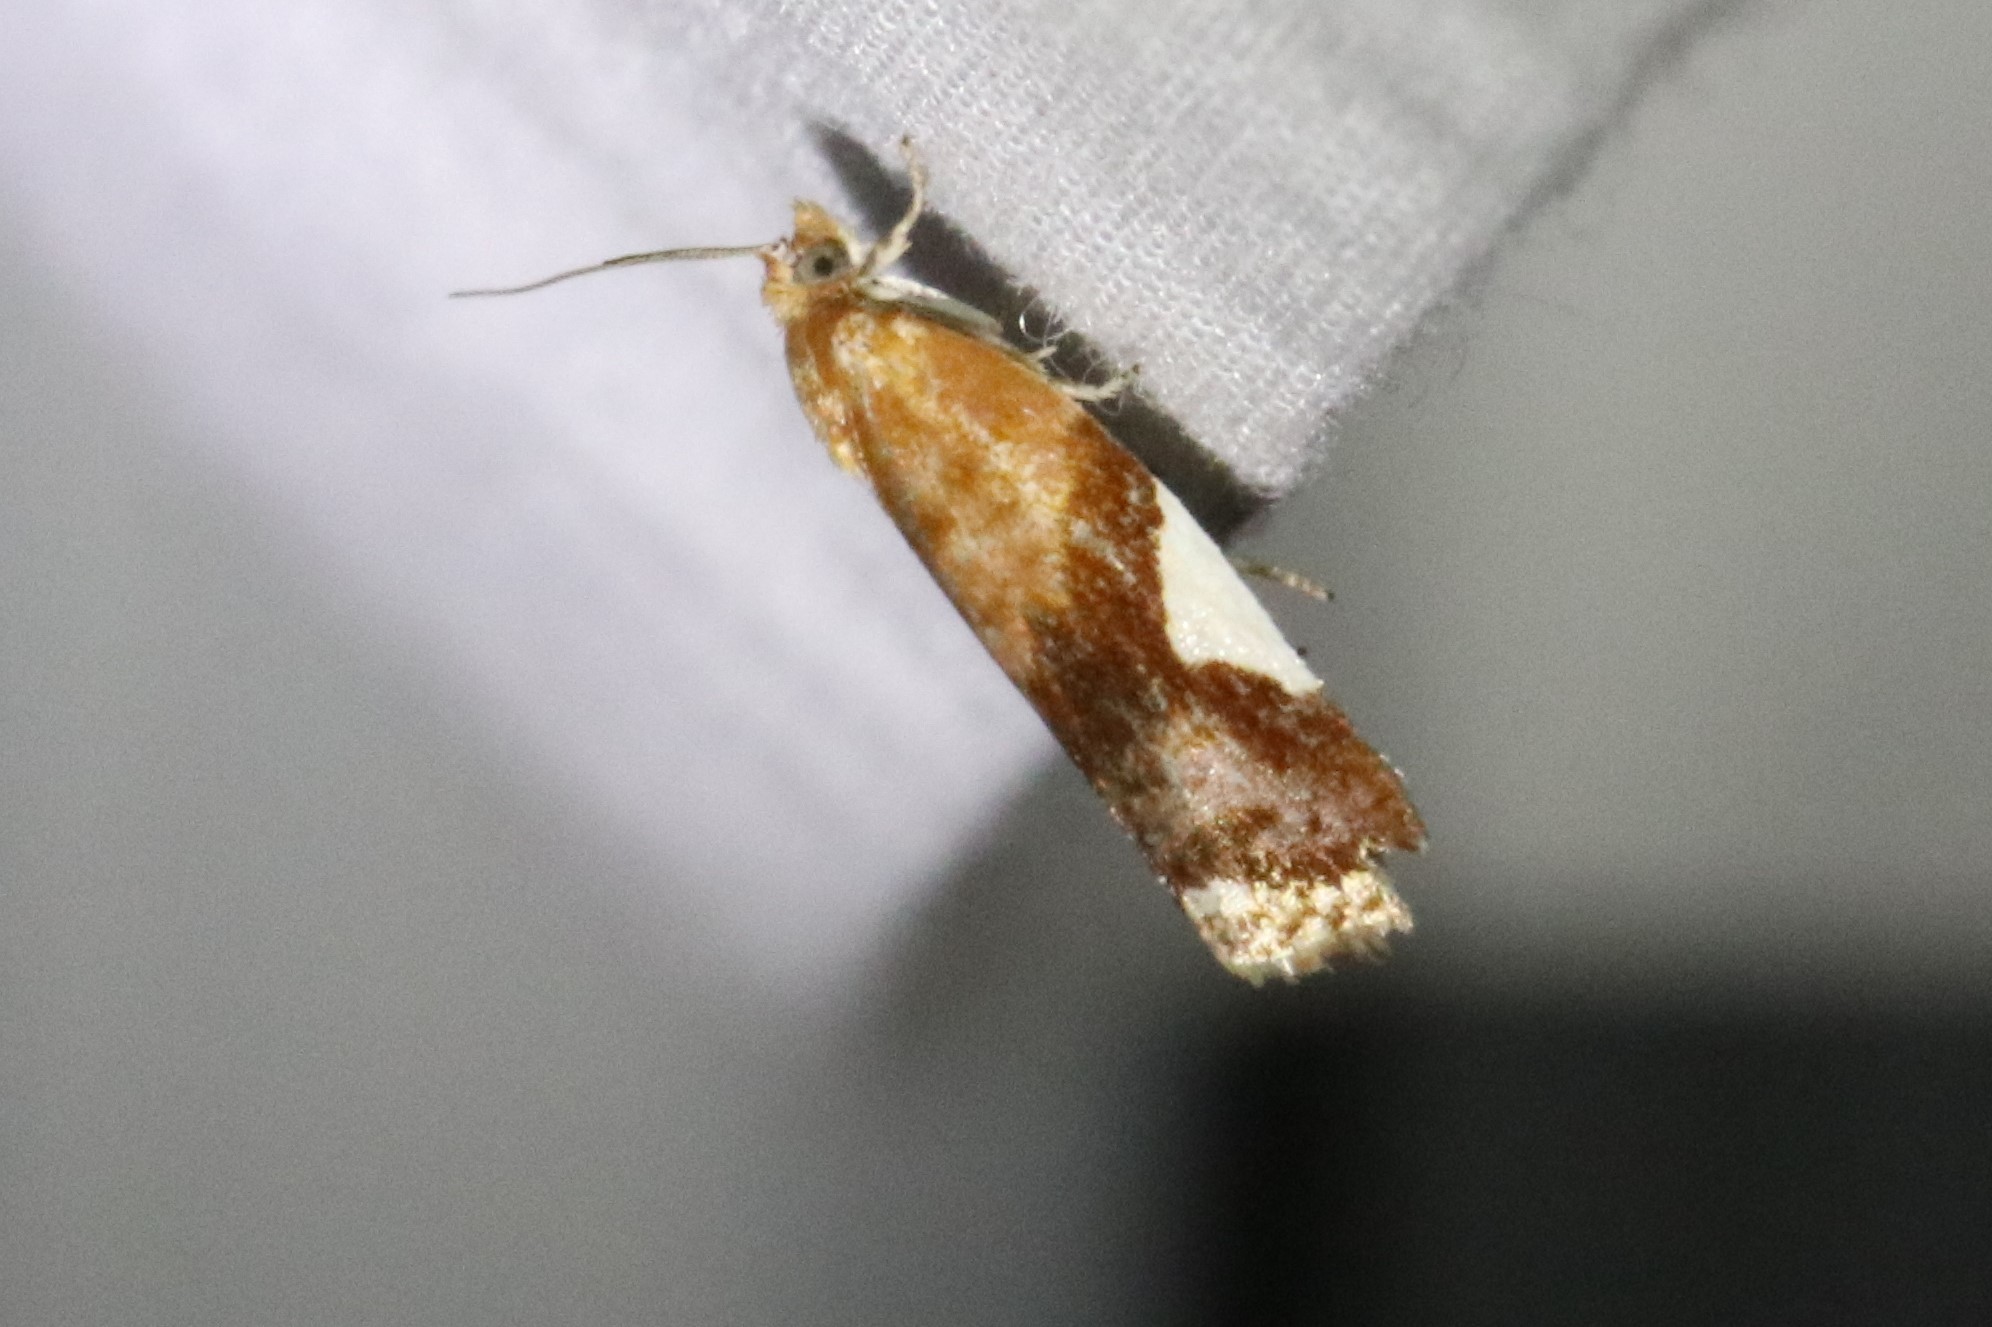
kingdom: Animalia
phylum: Arthropoda
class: Insecta
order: Lepidoptera
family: Tortricidae
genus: Clepsis
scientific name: Clepsis persicana
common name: White triangle tortrix
